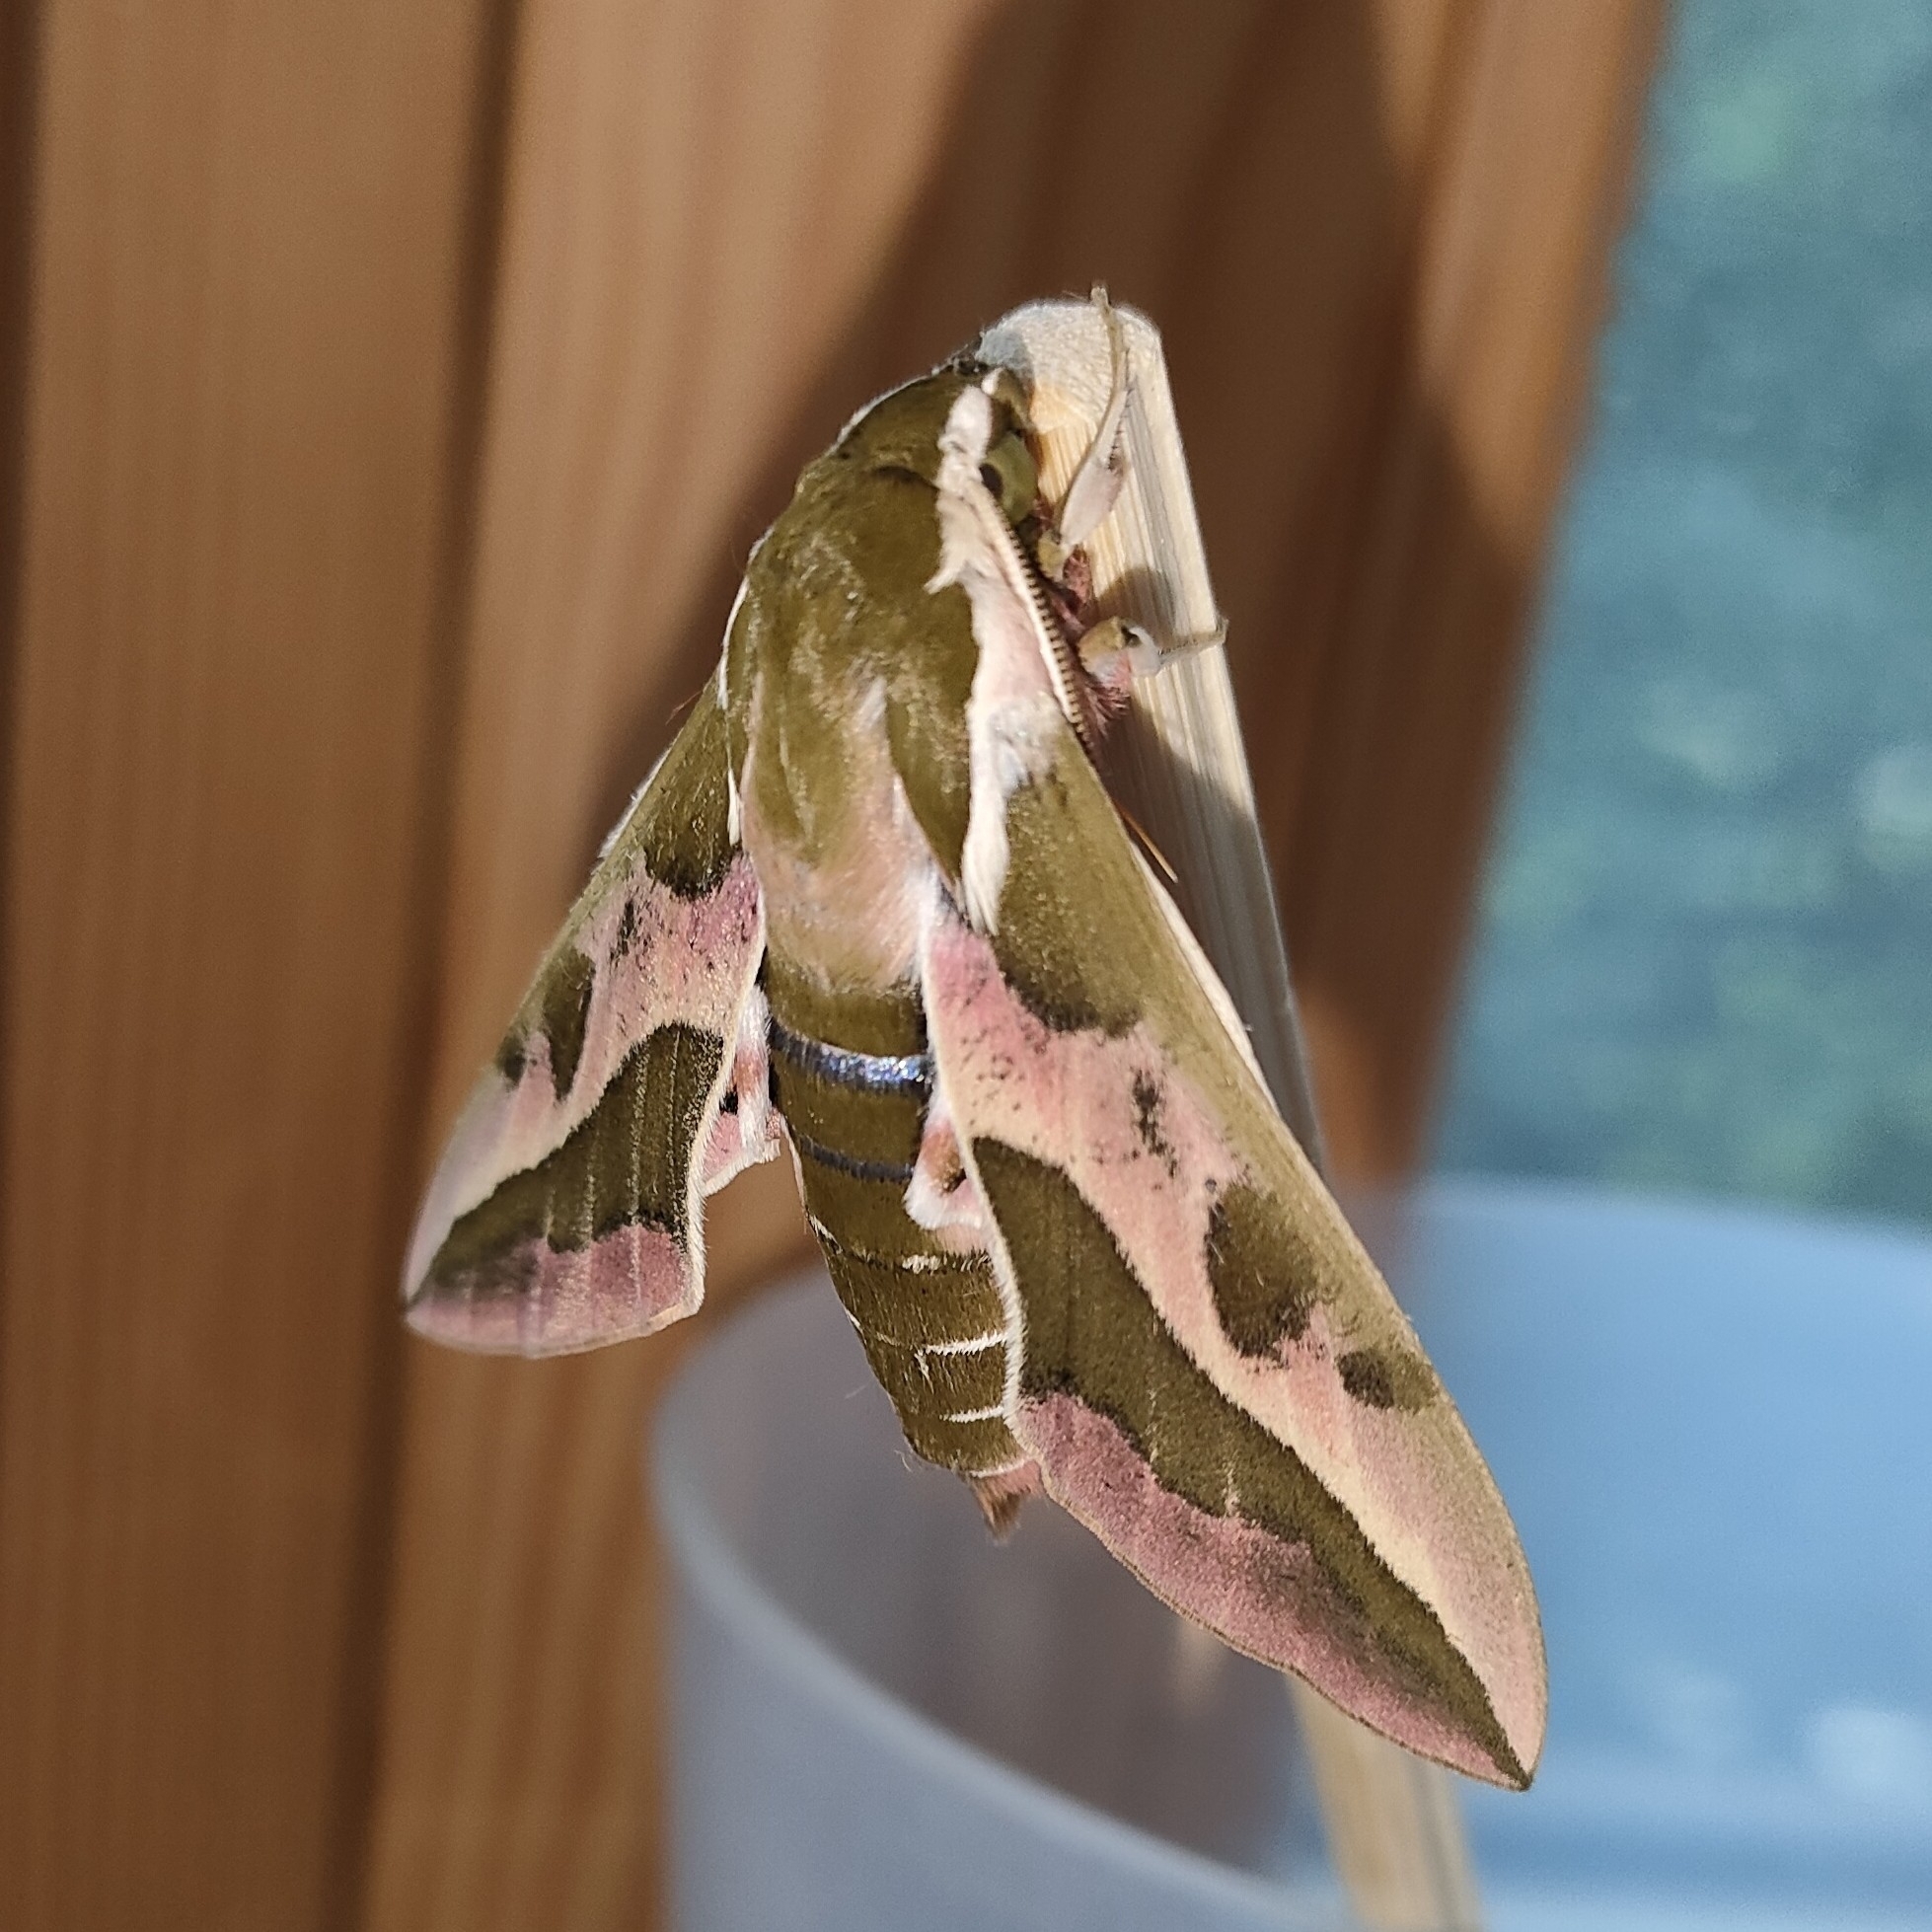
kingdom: Animalia
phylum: Arthropoda
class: Insecta
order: Lepidoptera
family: Sphingidae
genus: Hyles
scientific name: Hyles euphorbiae
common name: Spurge hawk-moth
